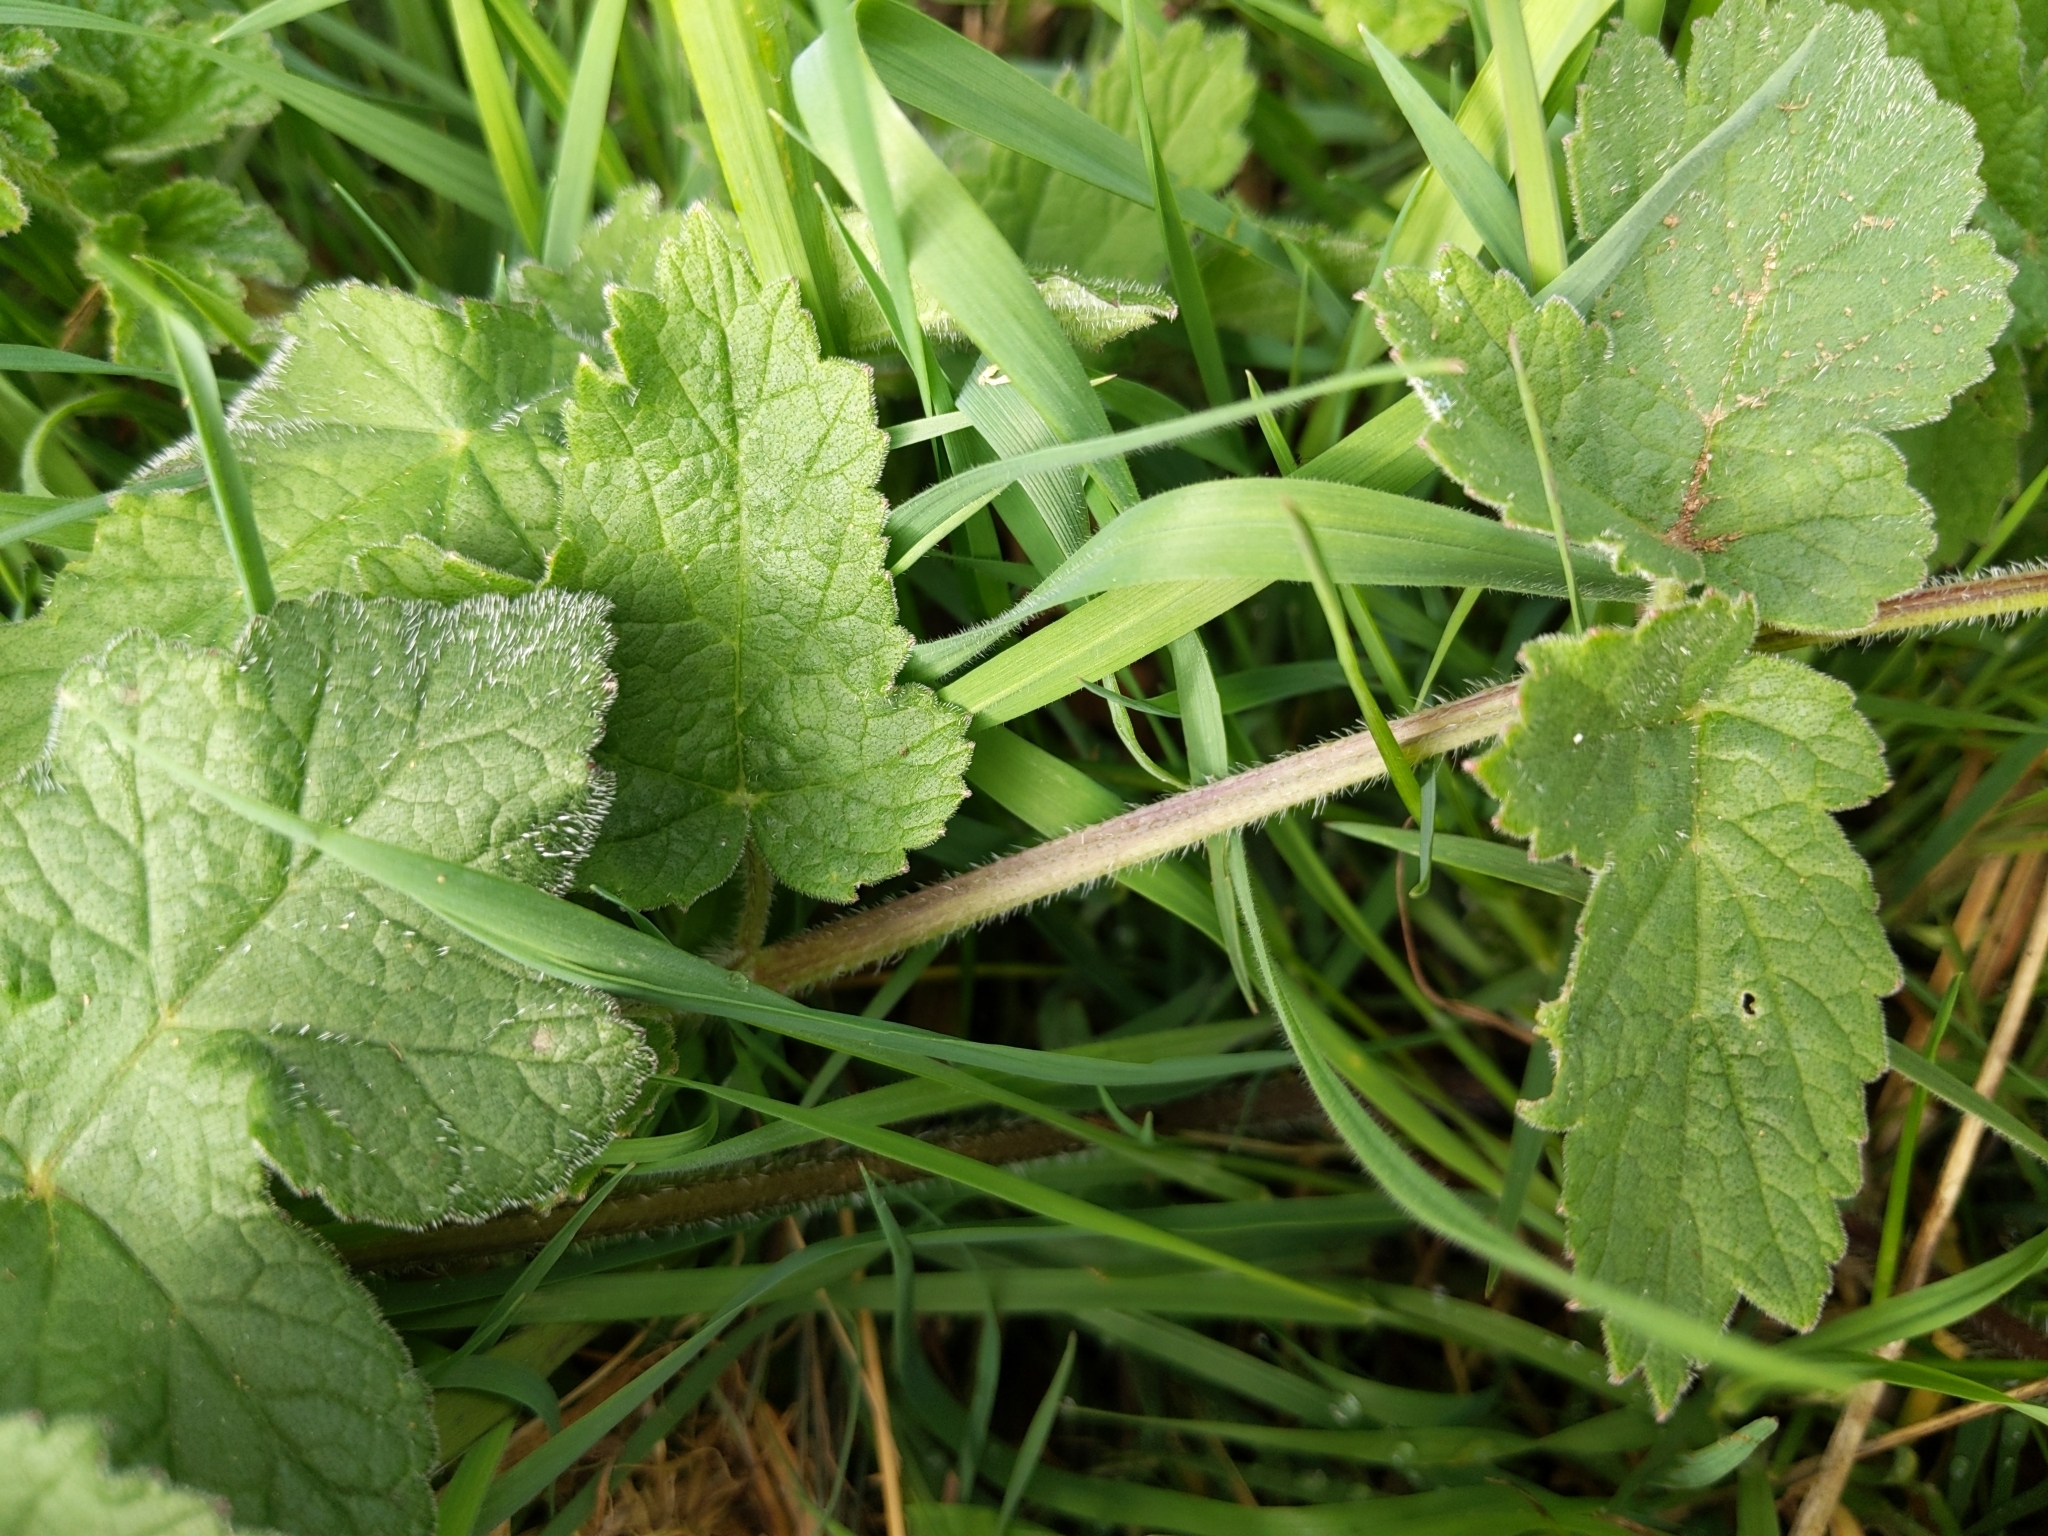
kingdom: Plantae
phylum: Tracheophyta
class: Magnoliopsida
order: Apiales
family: Apiaceae
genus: Heracleum
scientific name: Heracleum sphondylium
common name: Hogweed
